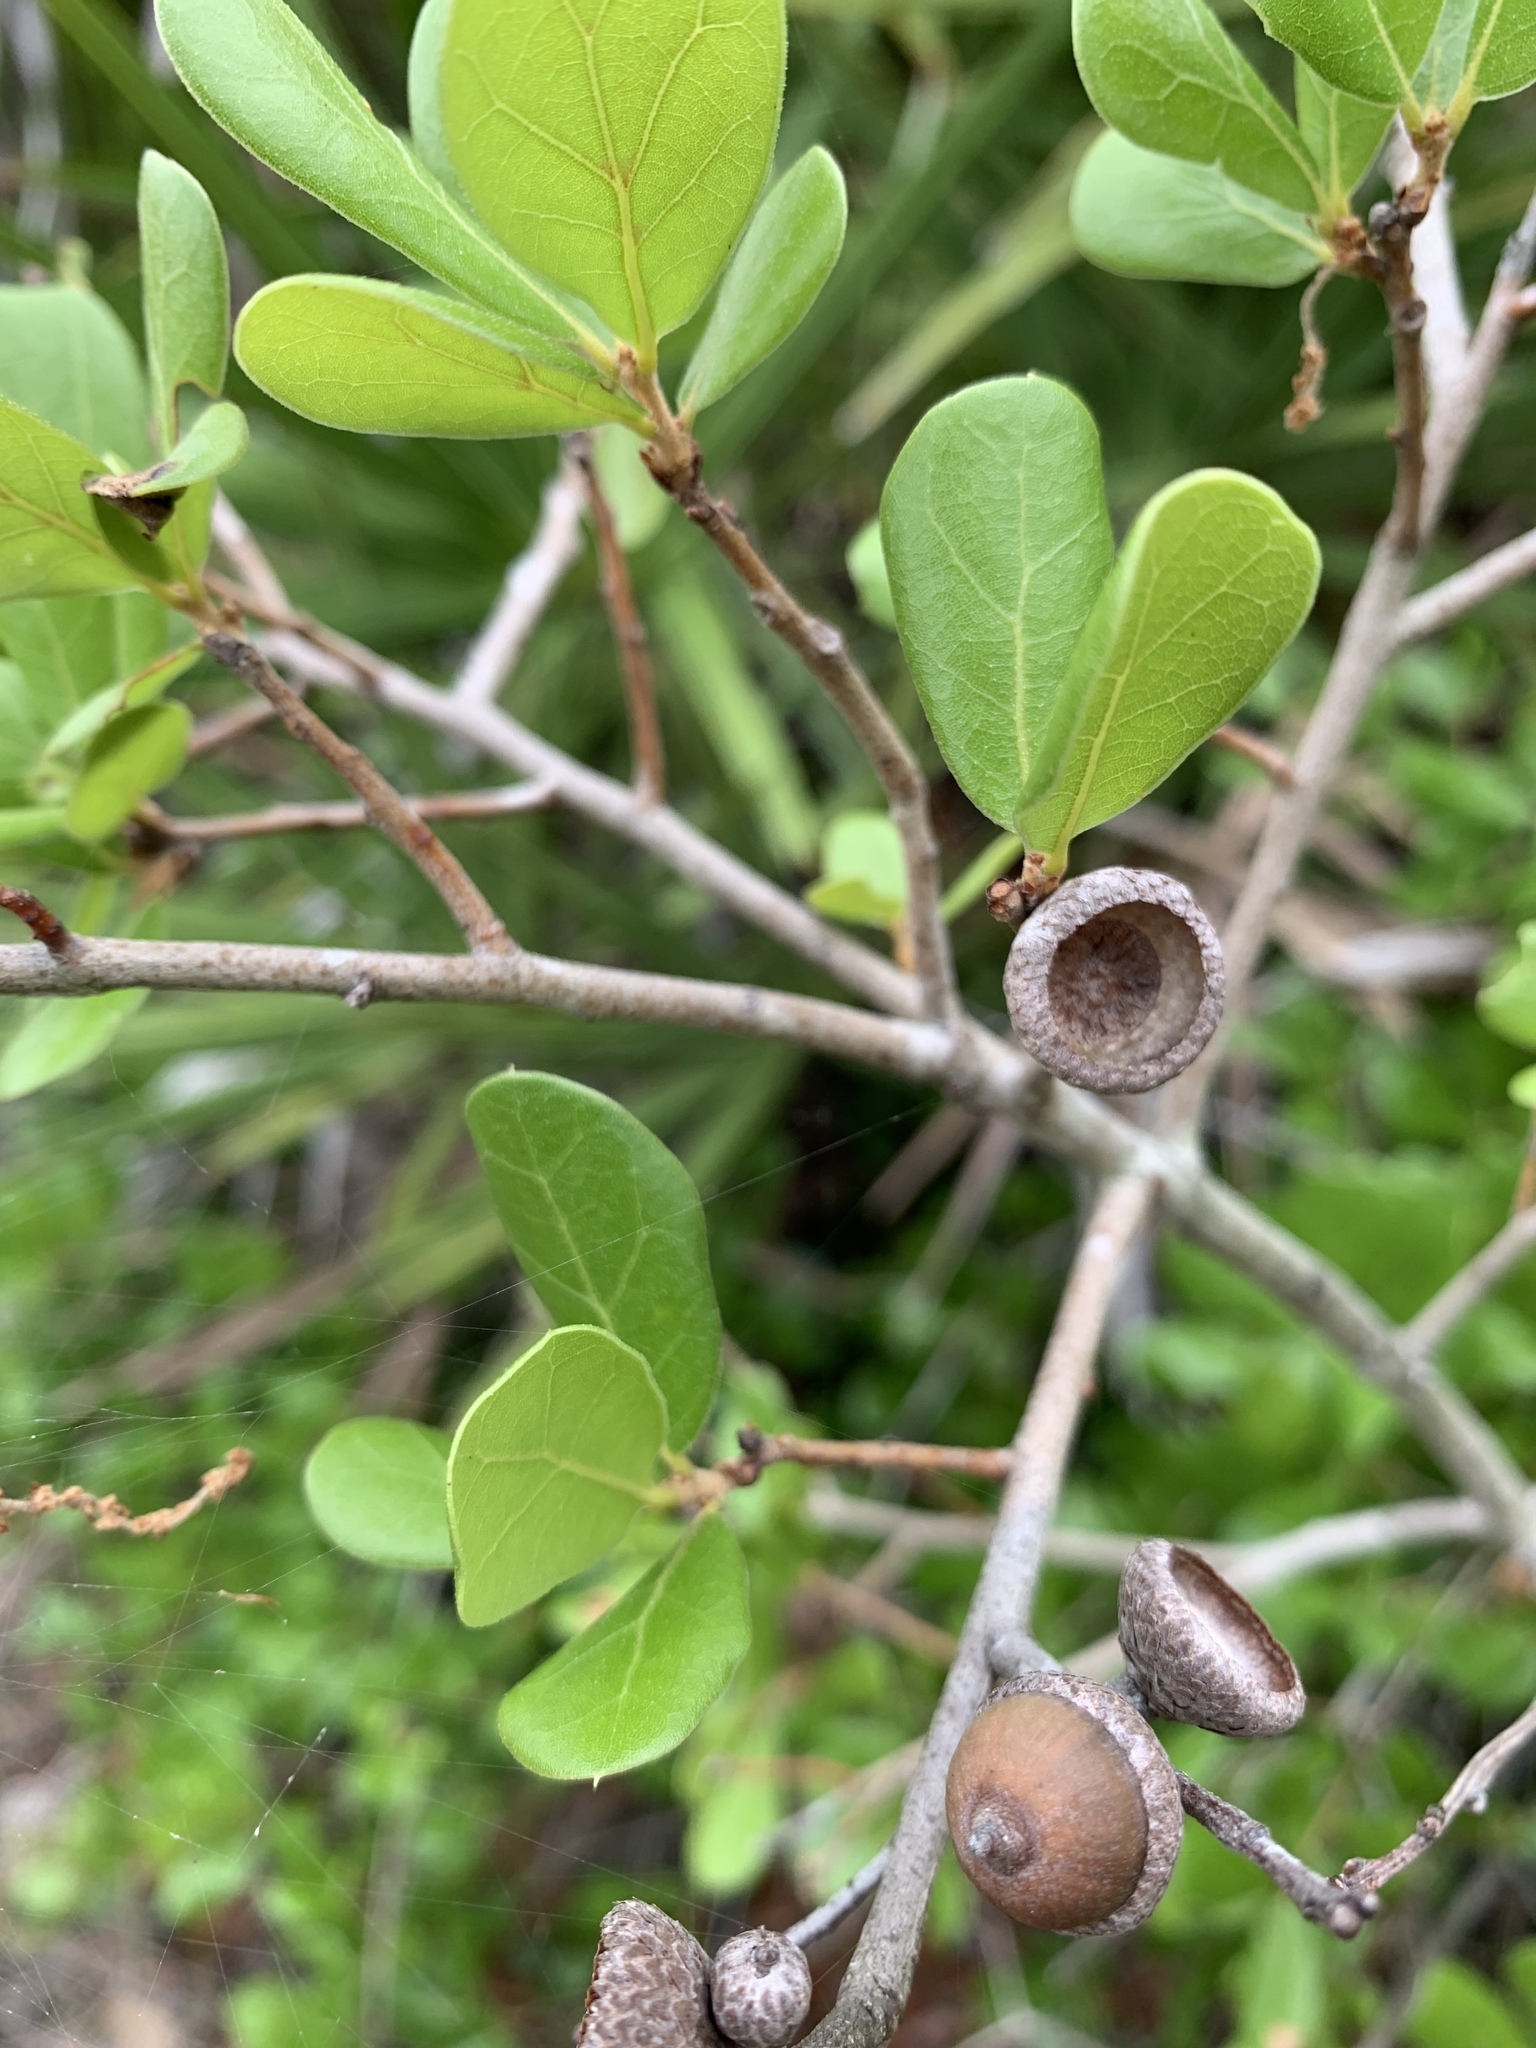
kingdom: Plantae
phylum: Tracheophyta
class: Magnoliopsida
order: Fagales
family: Fagaceae
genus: Quercus
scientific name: Quercus myrtifolia
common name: Myrtle oak
